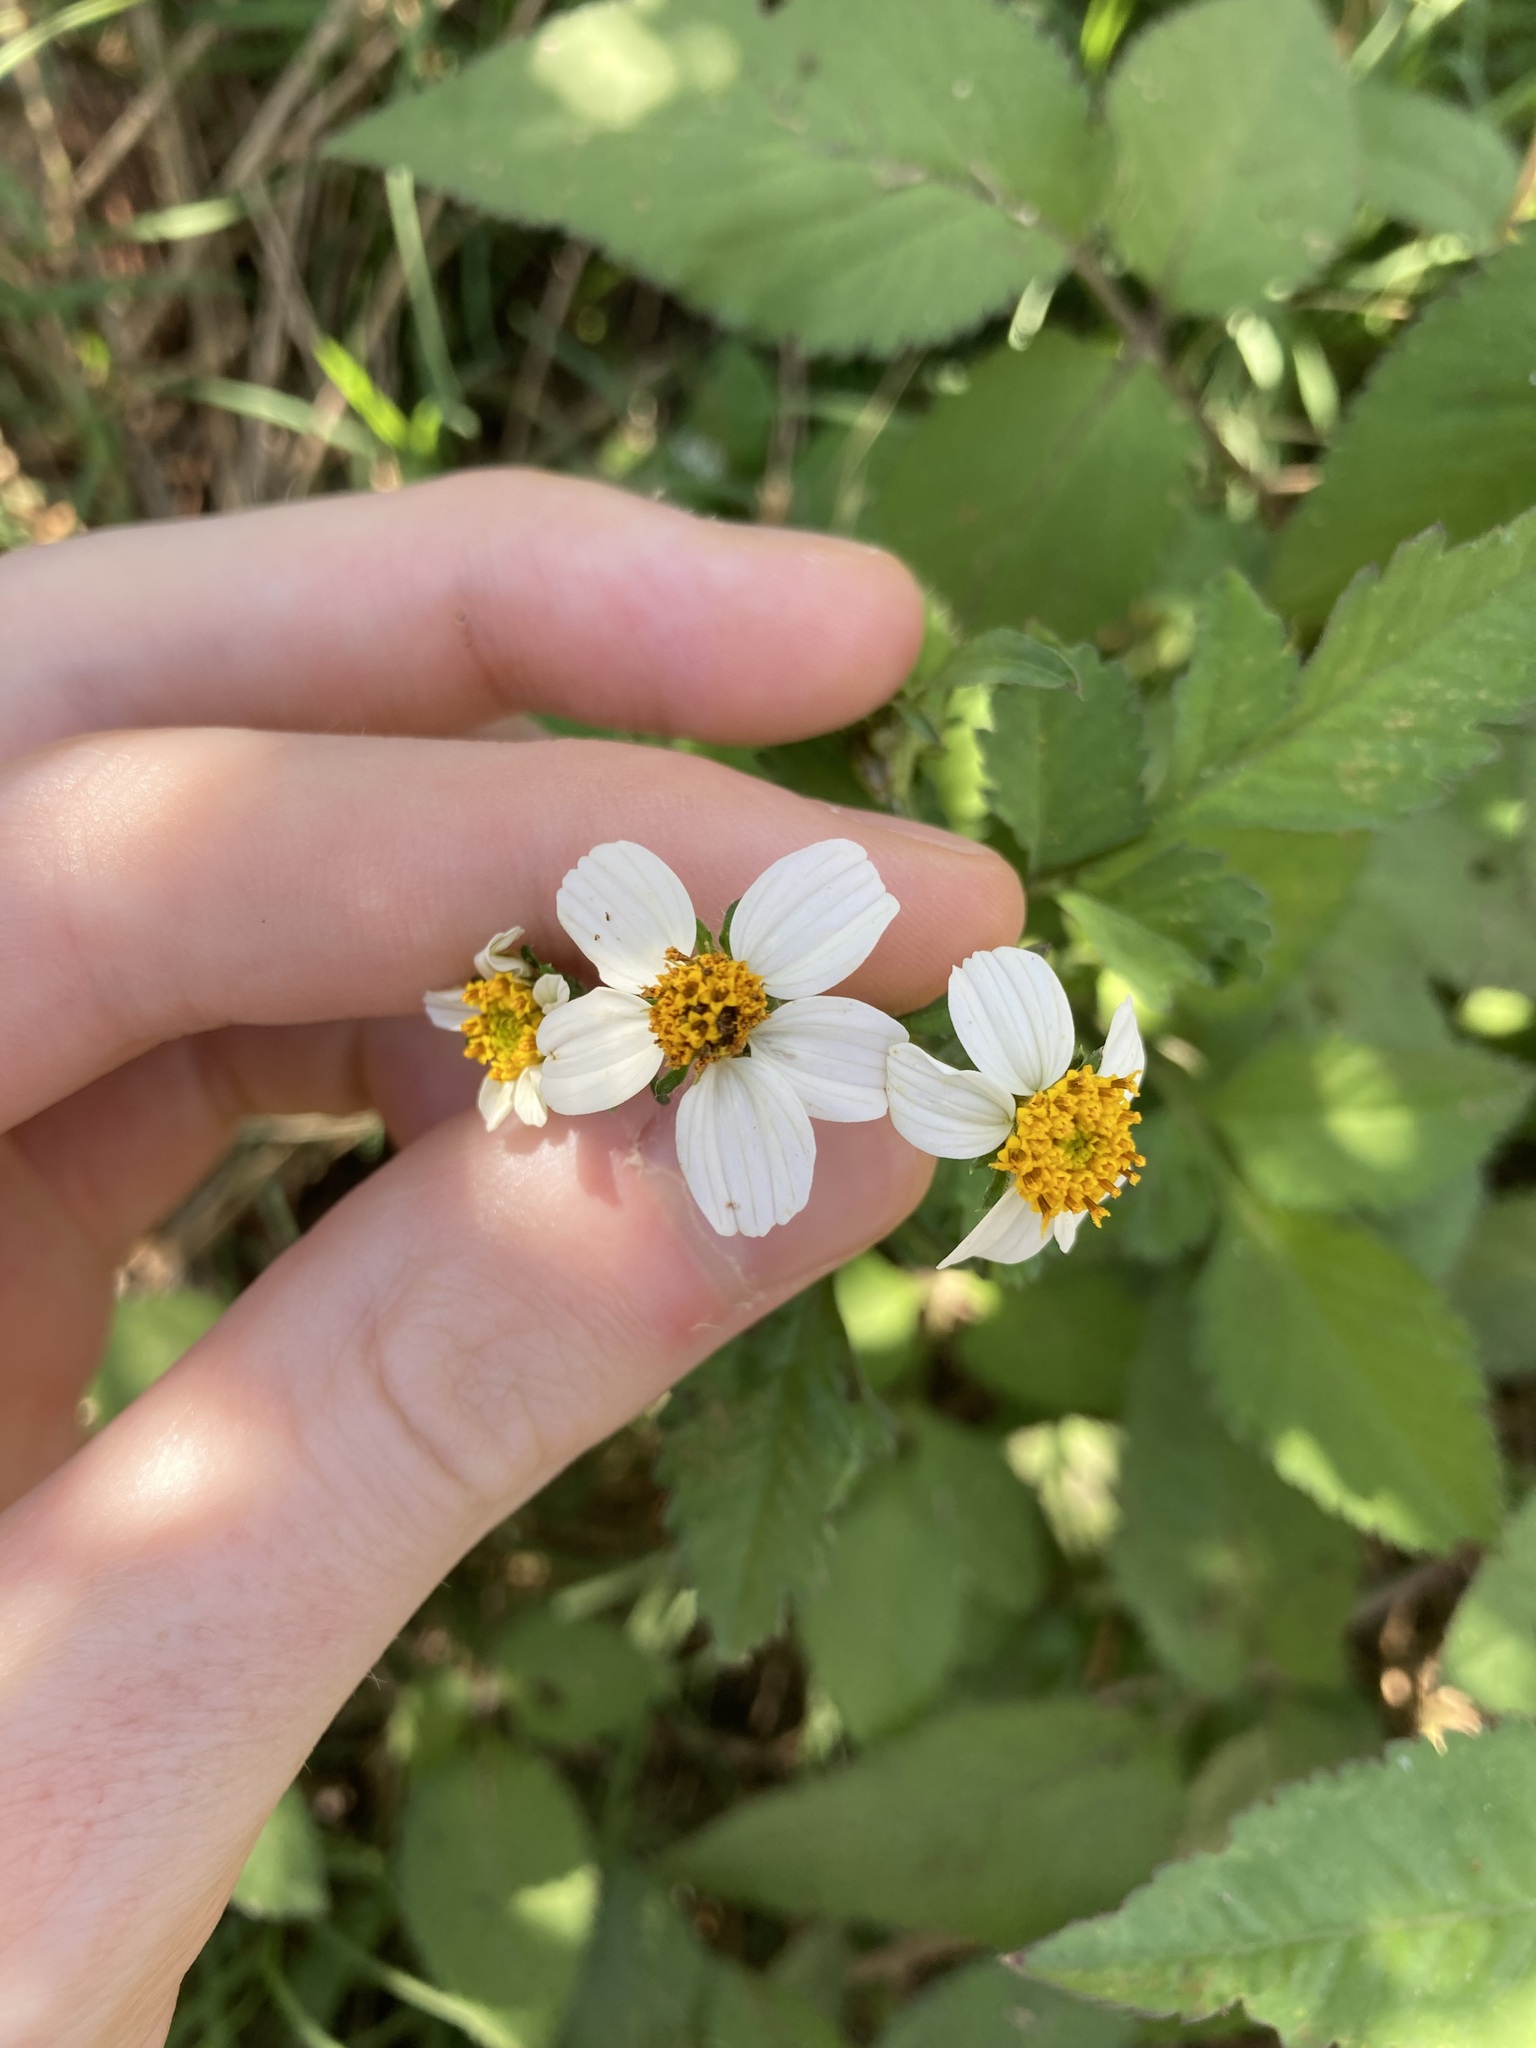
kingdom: Plantae
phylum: Tracheophyta
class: Magnoliopsida
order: Asterales
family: Asteraceae
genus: Bidens
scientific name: Bidens alba
